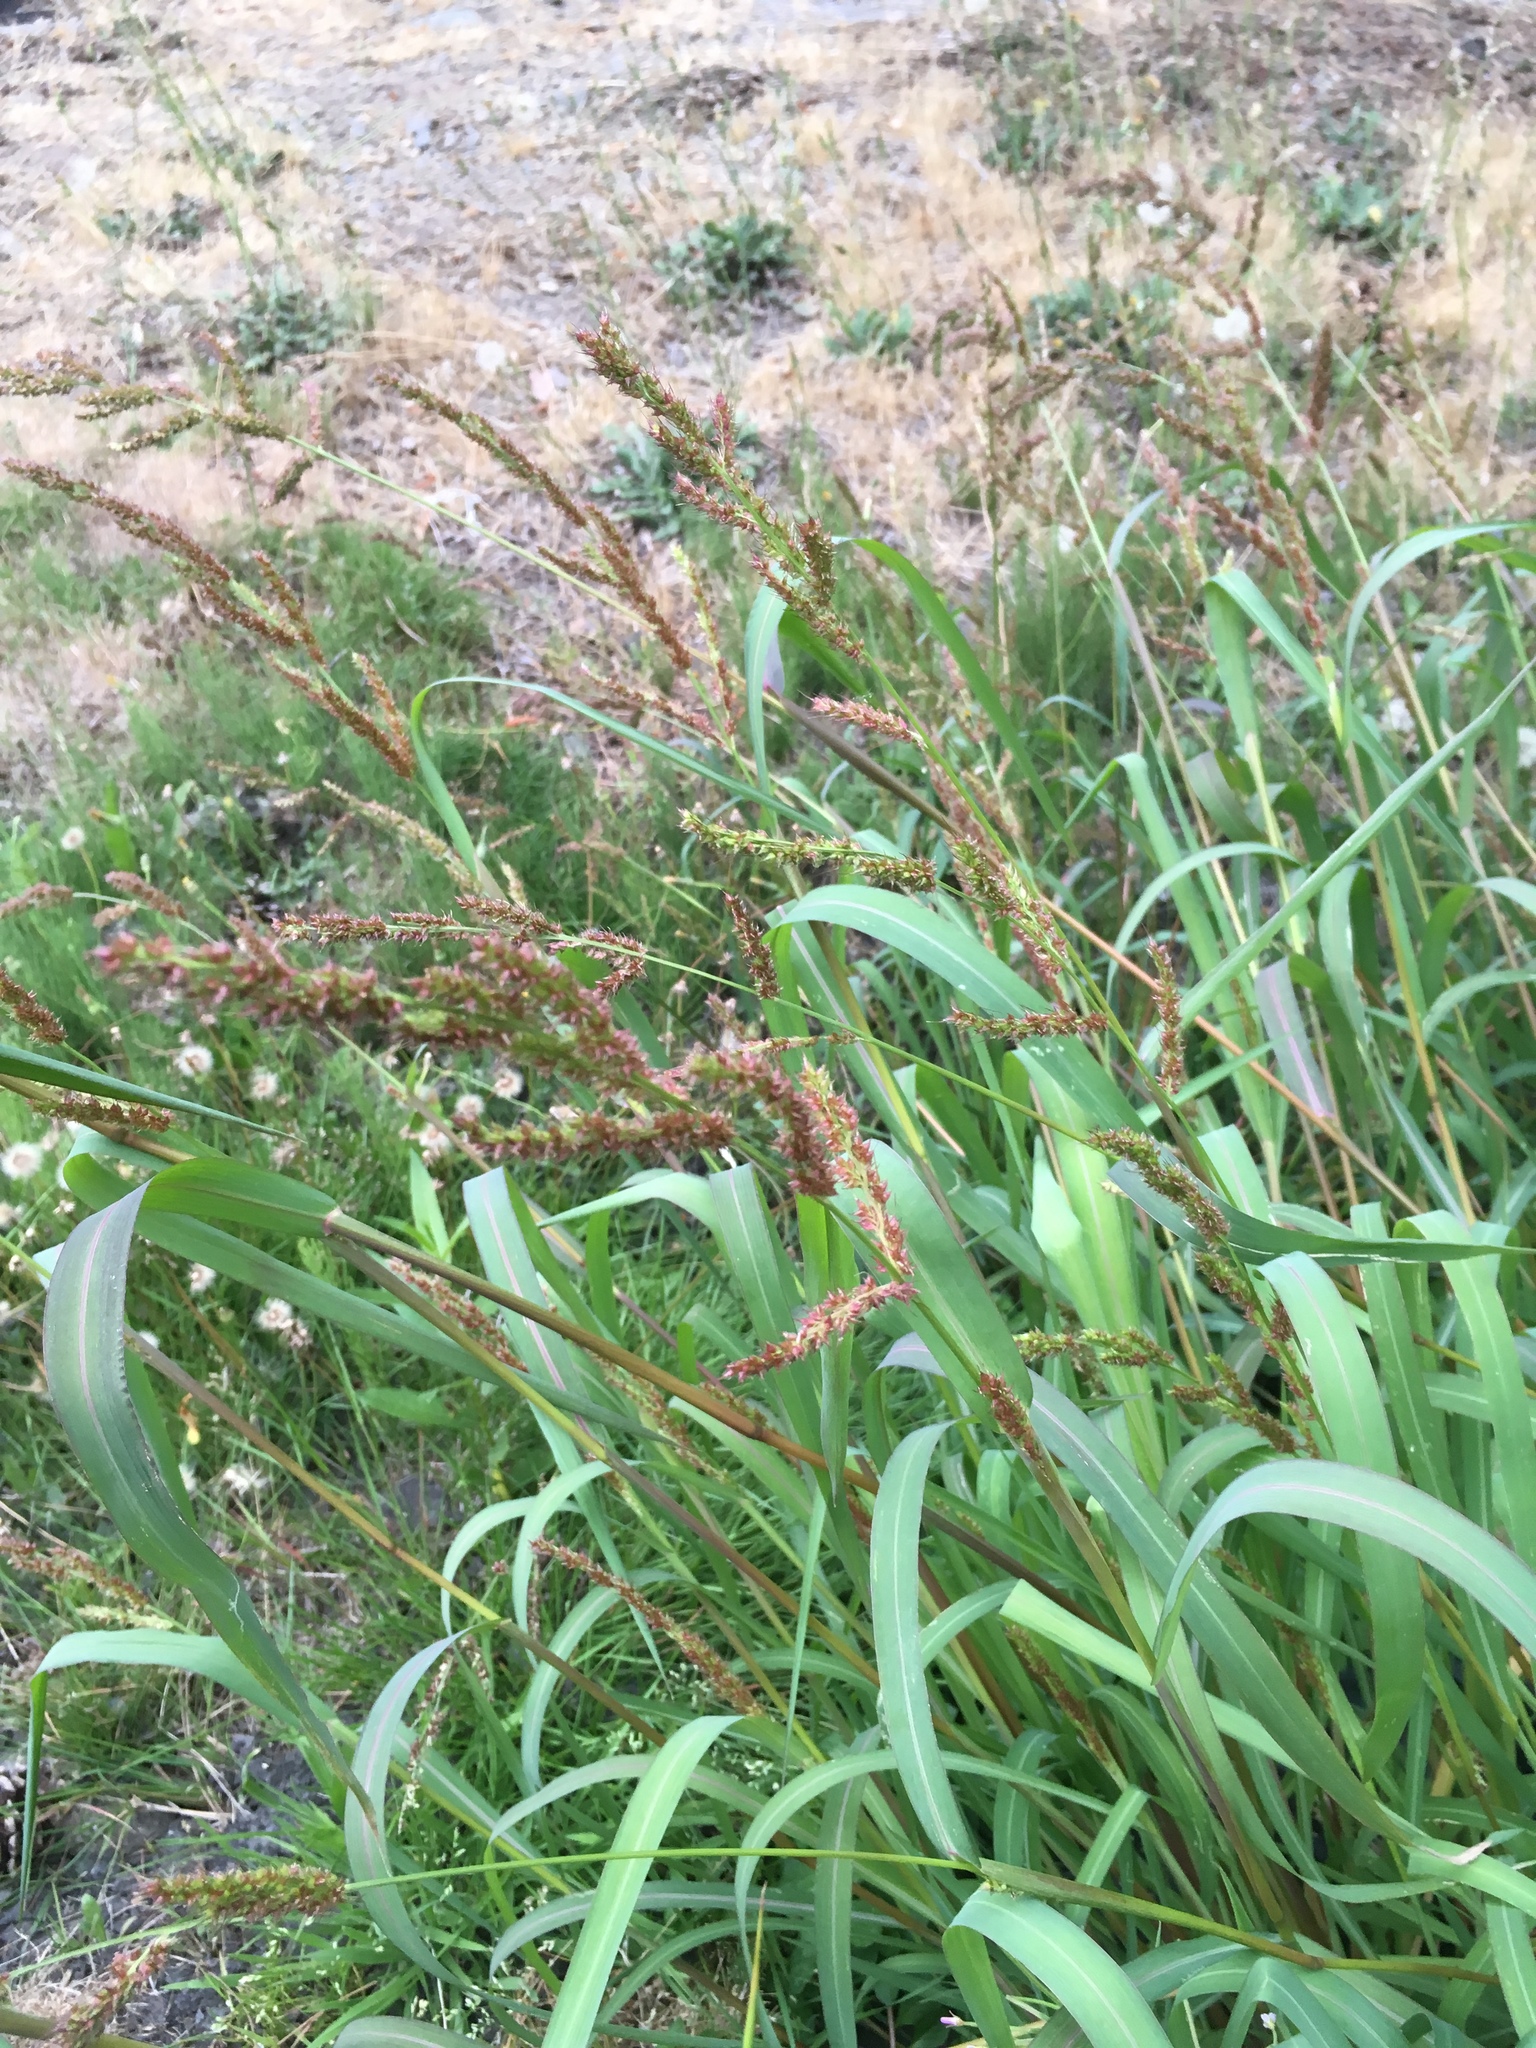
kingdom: Plantae
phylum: Tracheophyta
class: Liliopsida
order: Poales
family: Poaceae
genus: Echinochloa
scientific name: Echinochloa crus-galli
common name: Cockspur
